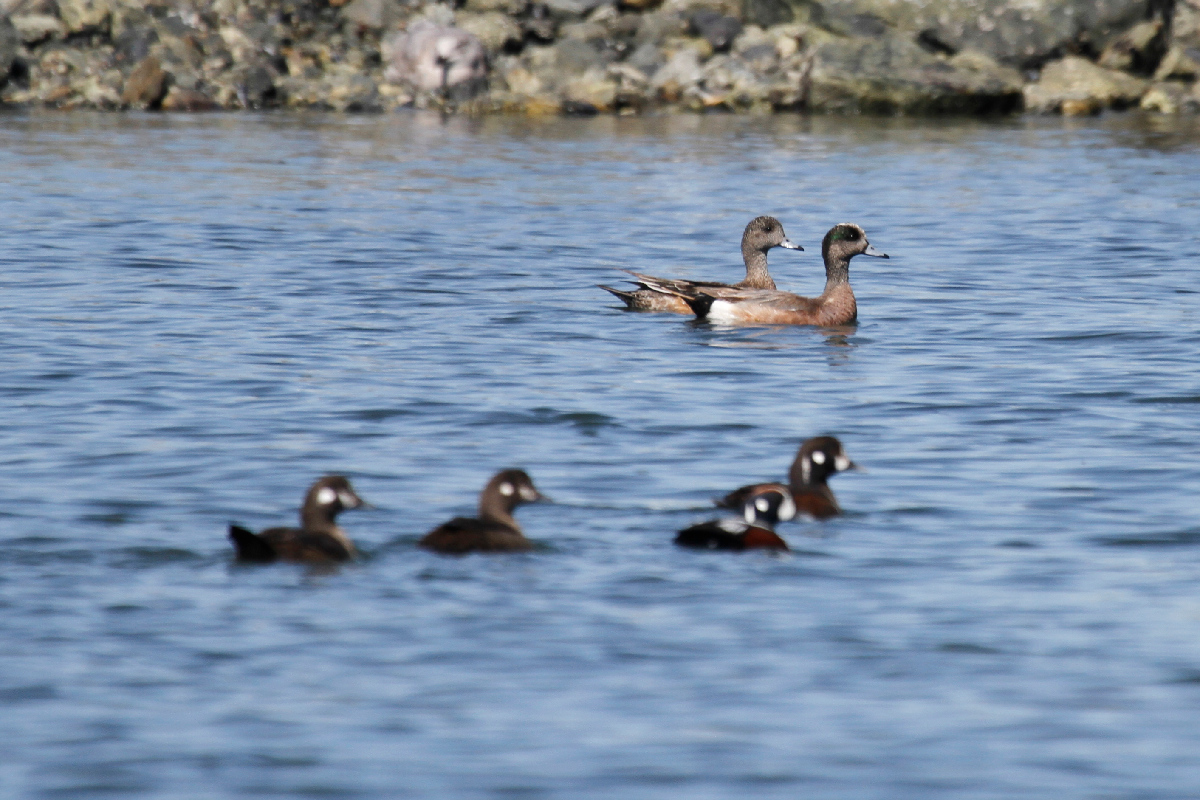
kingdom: Animalia
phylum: Chordata
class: Aves
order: Anseriformes
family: Anatidae
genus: Mareca
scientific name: Mareca americana
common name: American wigeon
